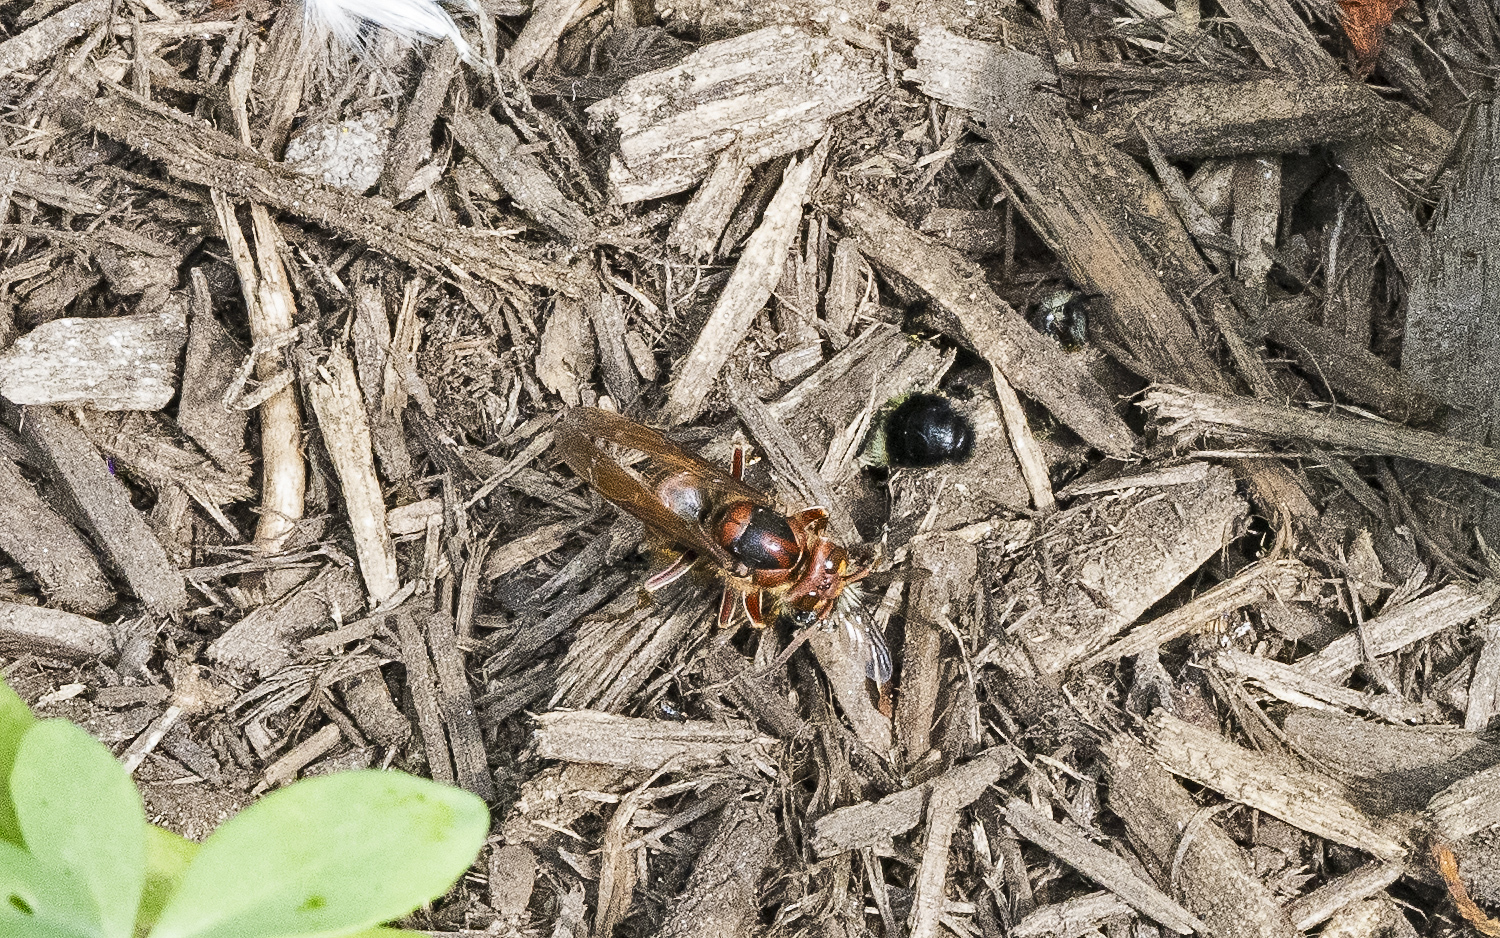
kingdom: Animalia
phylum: Arthropoda
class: Insecta
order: Hymenoptera
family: Vespidae
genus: Vespa
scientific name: Vespa crabro
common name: Hornet
